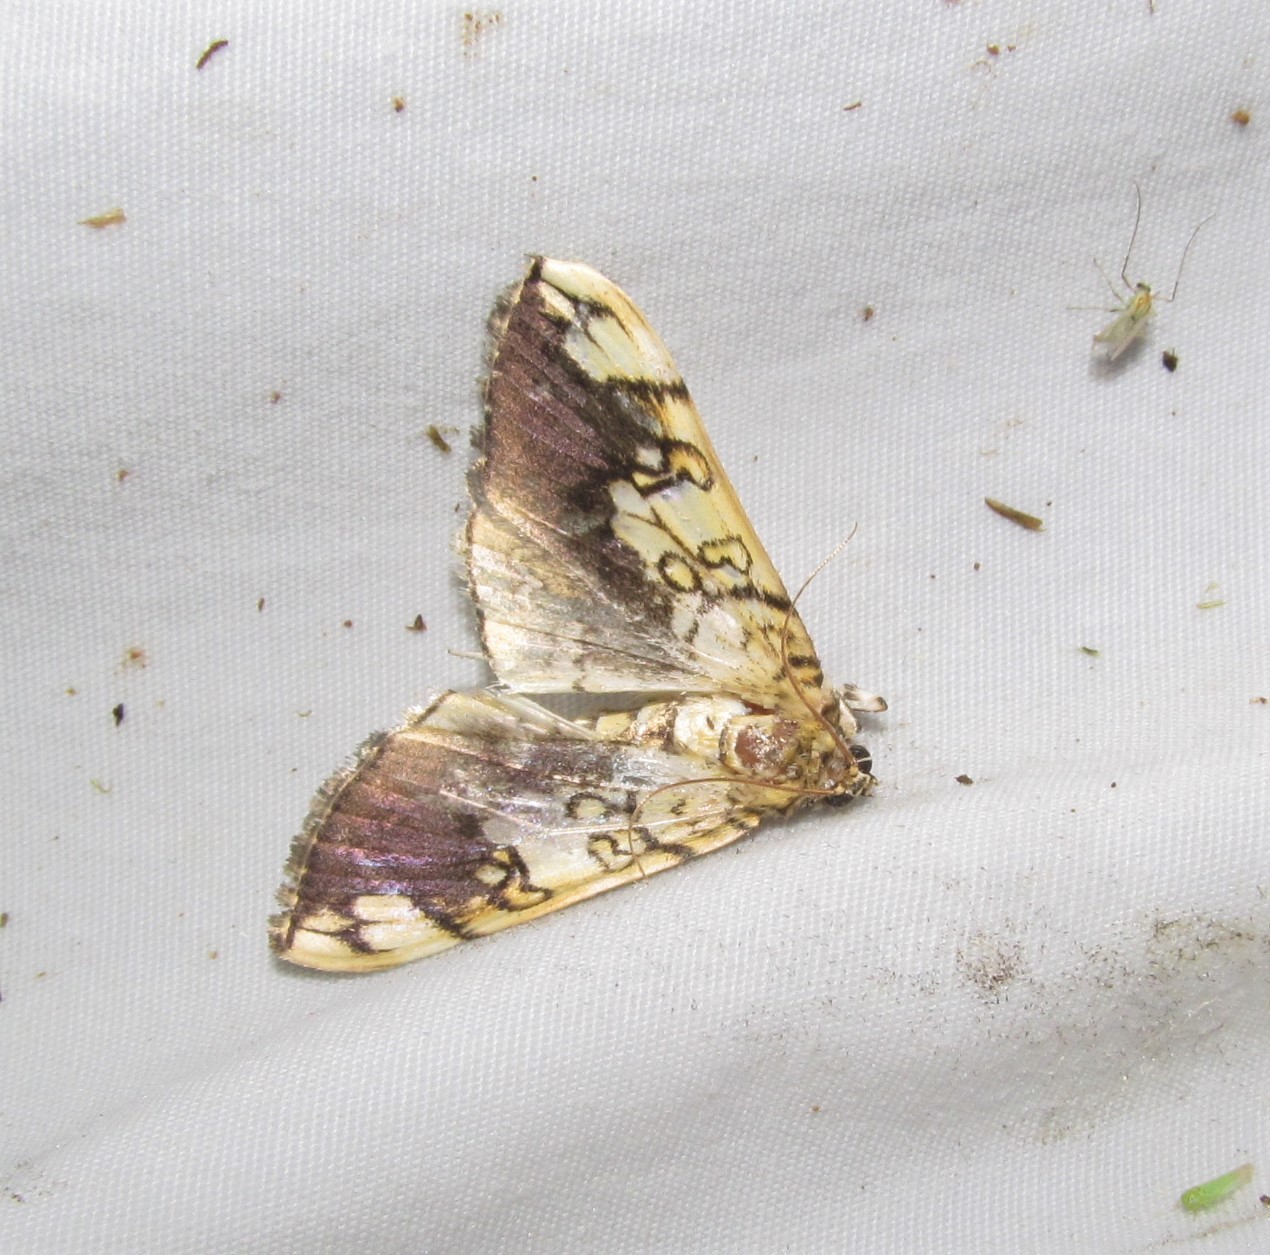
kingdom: Animalia
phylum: Arthropoda
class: Insecta
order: Lepidoptera
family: Crambidae
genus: Pantographa
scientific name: Pantographa limata
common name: Basswood leafroller moth
